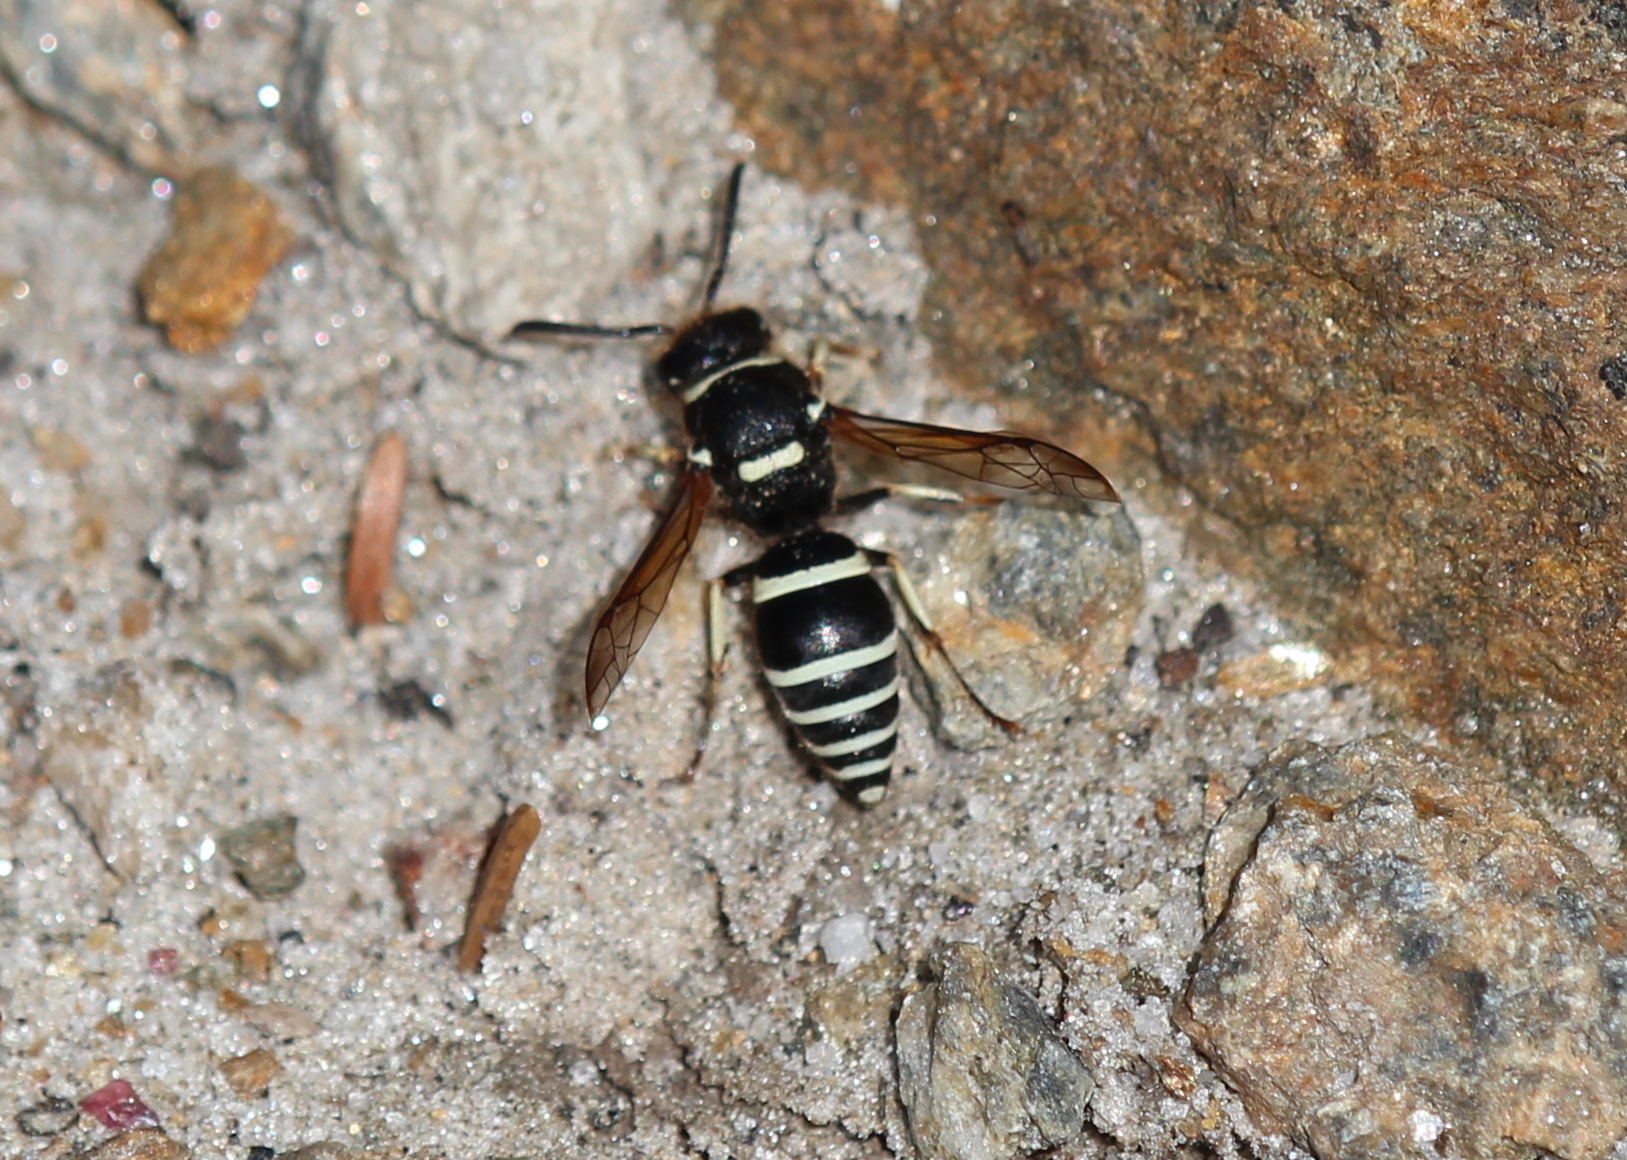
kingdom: Animalia
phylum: Arthropoda
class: Insecta
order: Hymenoptera
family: Vespidae
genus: Ancistrocerus
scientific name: Ancistrocerus waldenii
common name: Walden’s potter wasp
